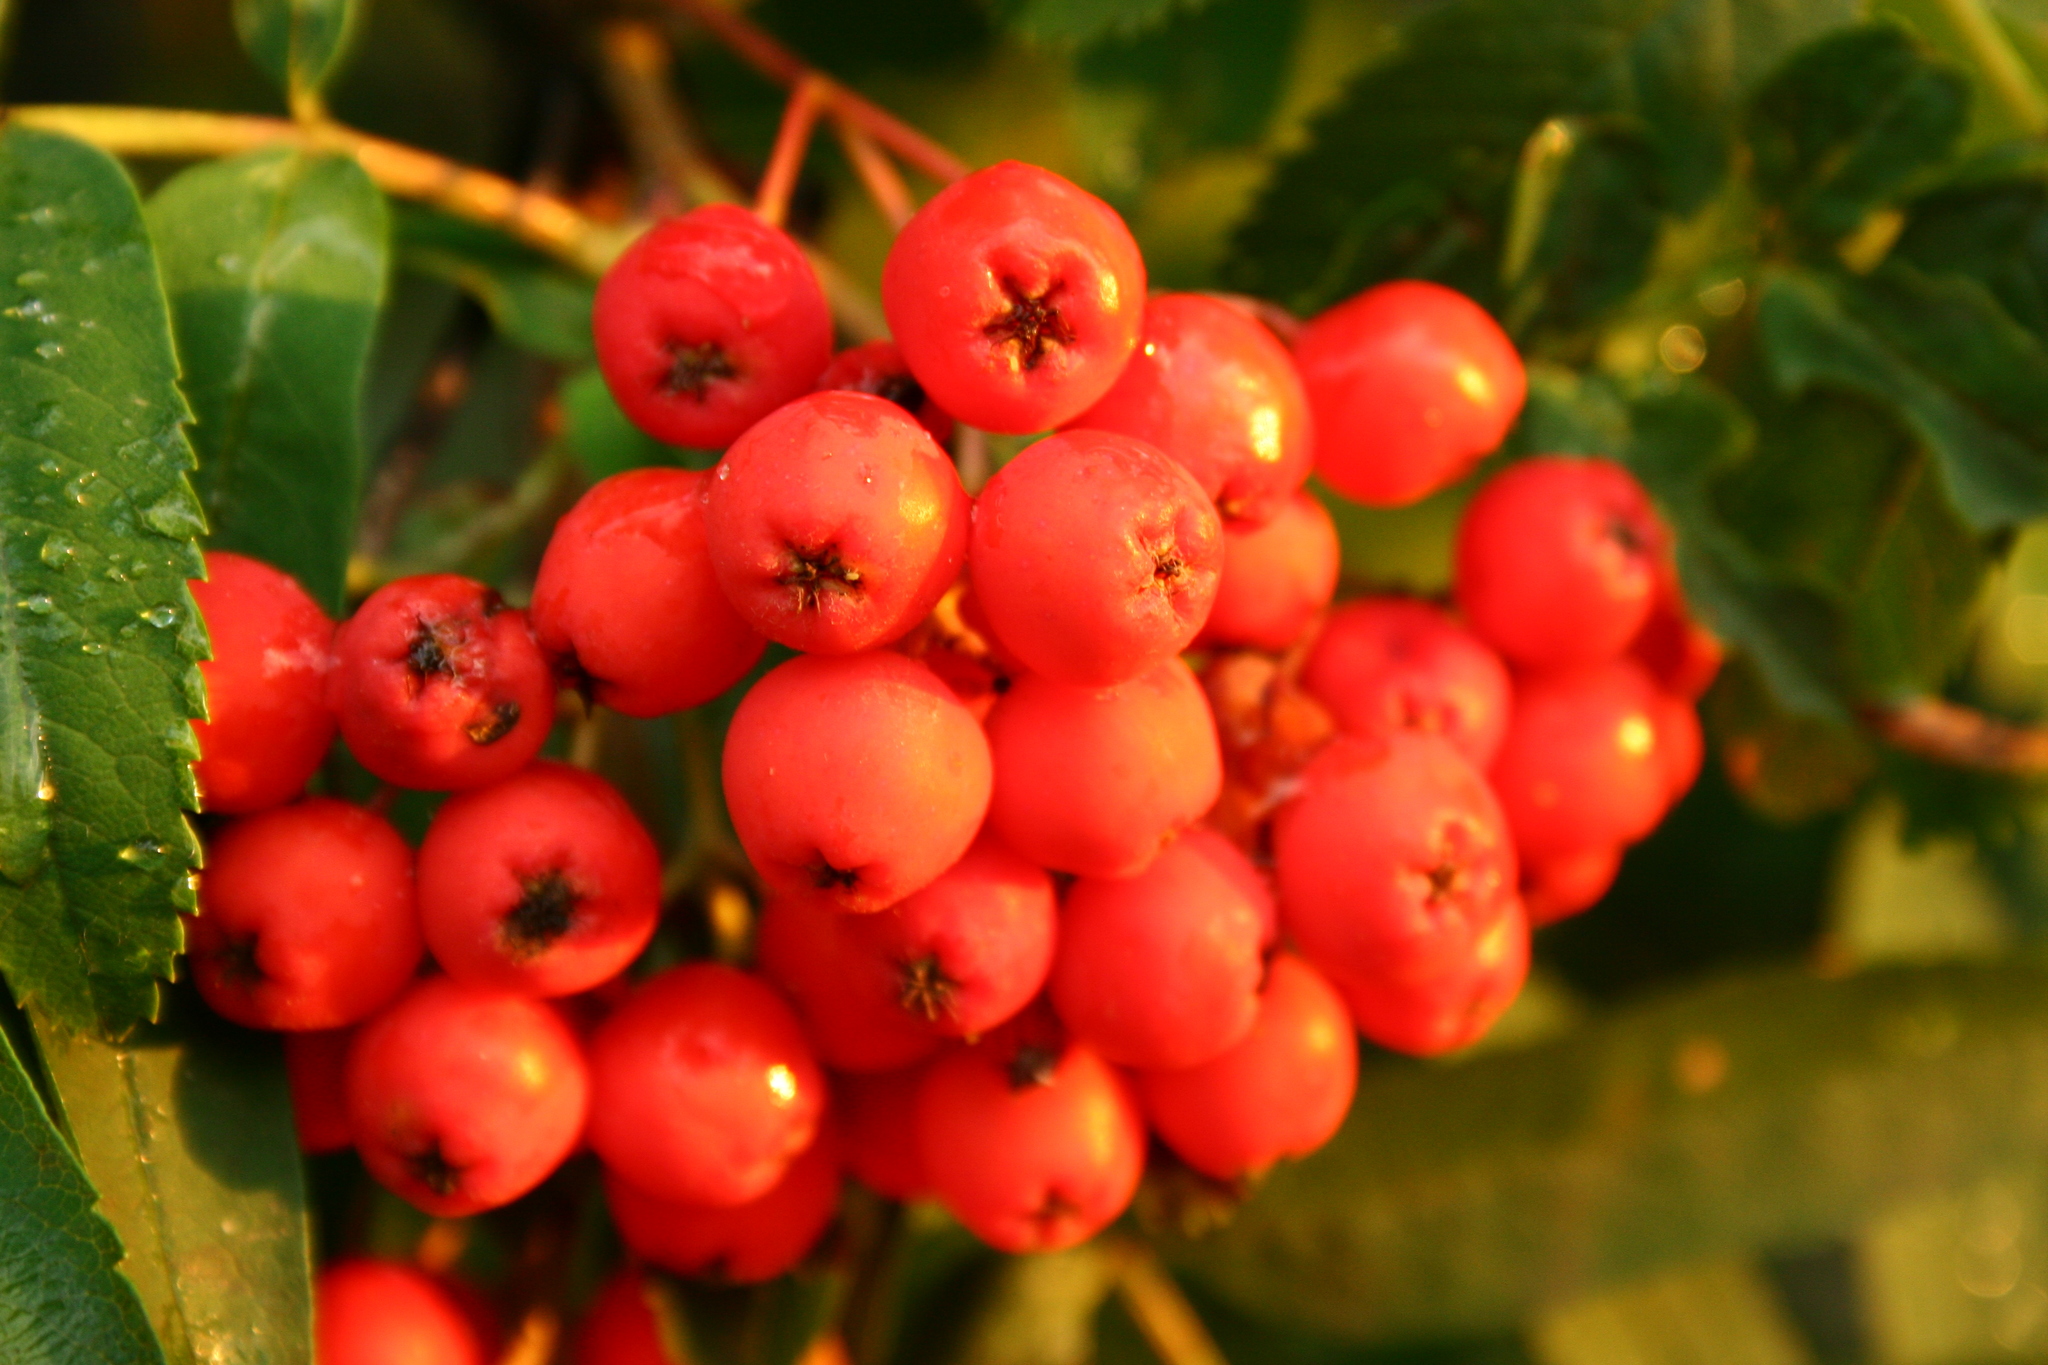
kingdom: Plantae
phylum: Tracheophyta
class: Magnoliopsida
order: Rosales
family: Rosaceae
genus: Sorbus
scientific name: Sorbus aucuparia
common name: Rowan
